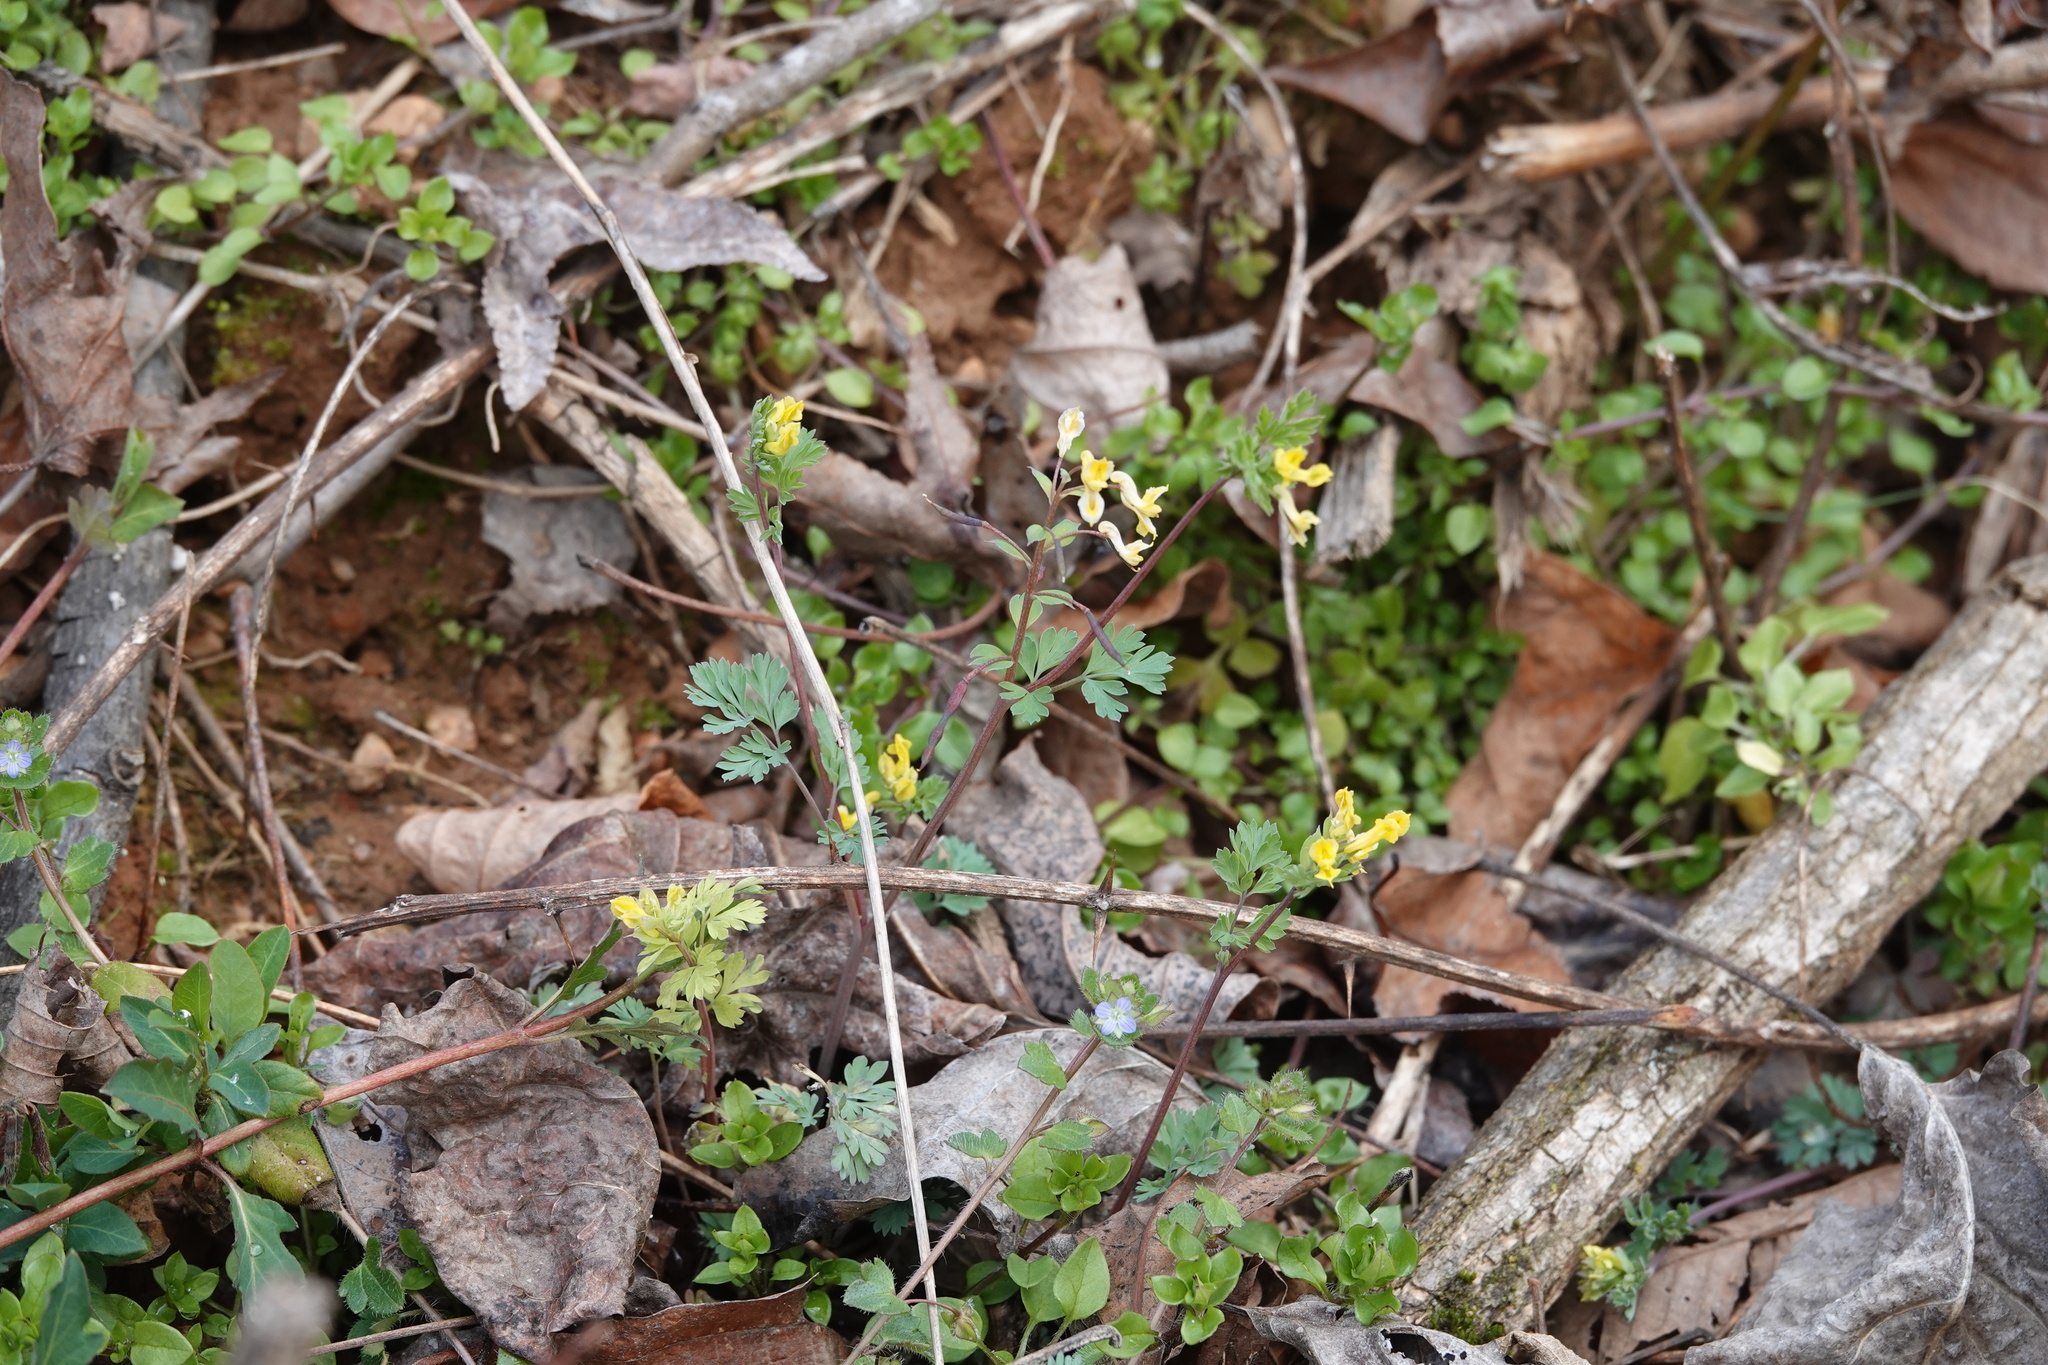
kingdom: Plantae
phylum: Tracheophyta
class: Magnoliopsida
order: Ranunculales
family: Papaveraceae
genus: Corydalis
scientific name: Corydalis flavula
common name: Yellow corydalis
